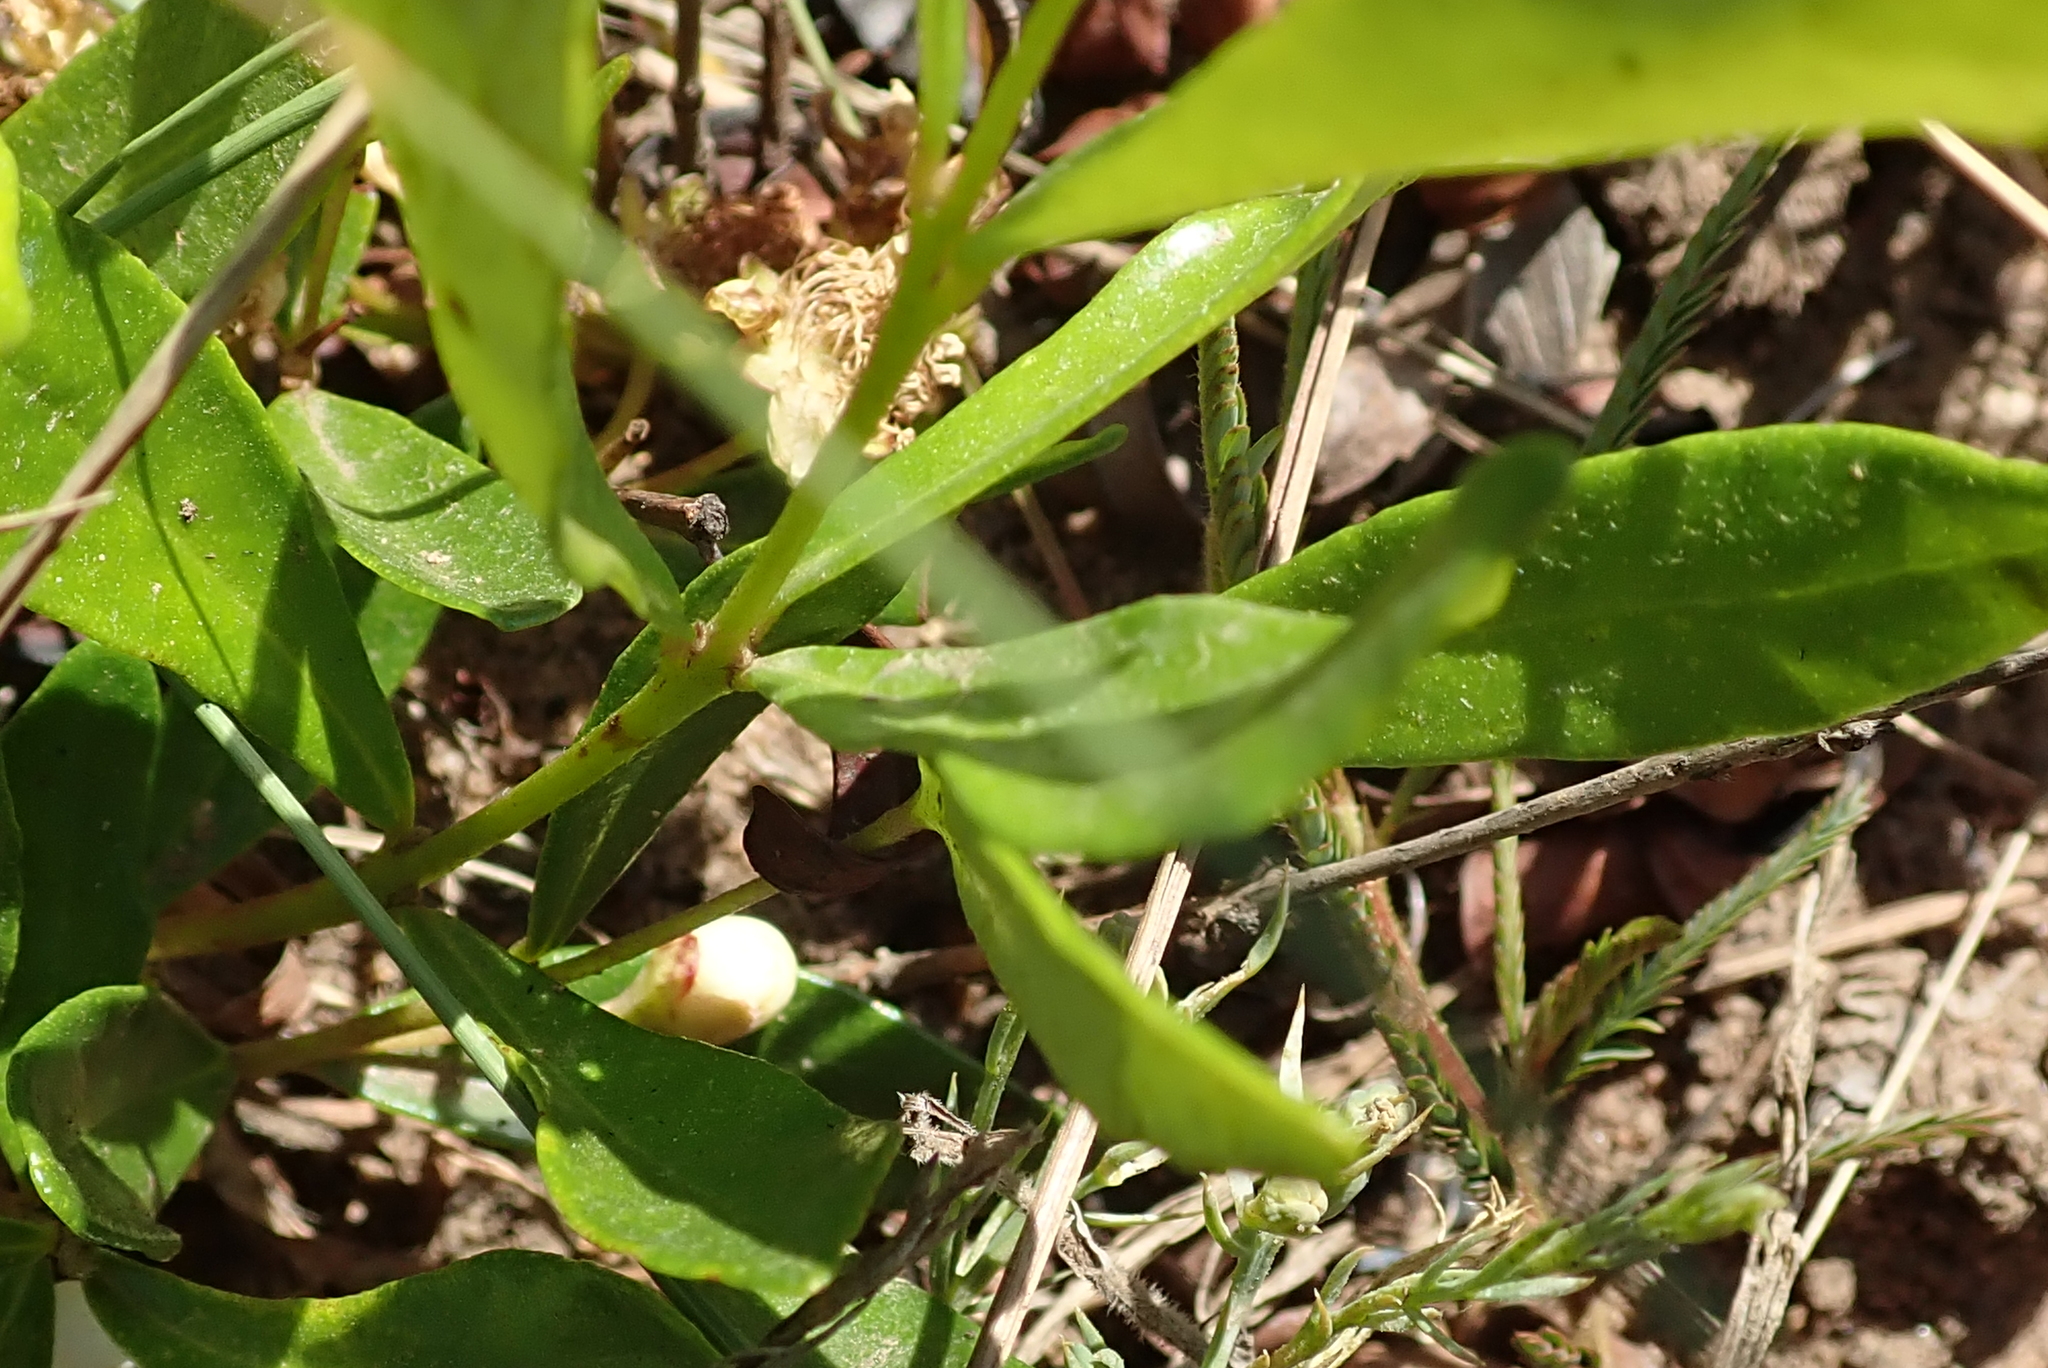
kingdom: Plantae
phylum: Tracheophyta
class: Magnoliopsida
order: Myrtales
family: Myrtaceae
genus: Eugenia
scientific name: Eugenia capensis
